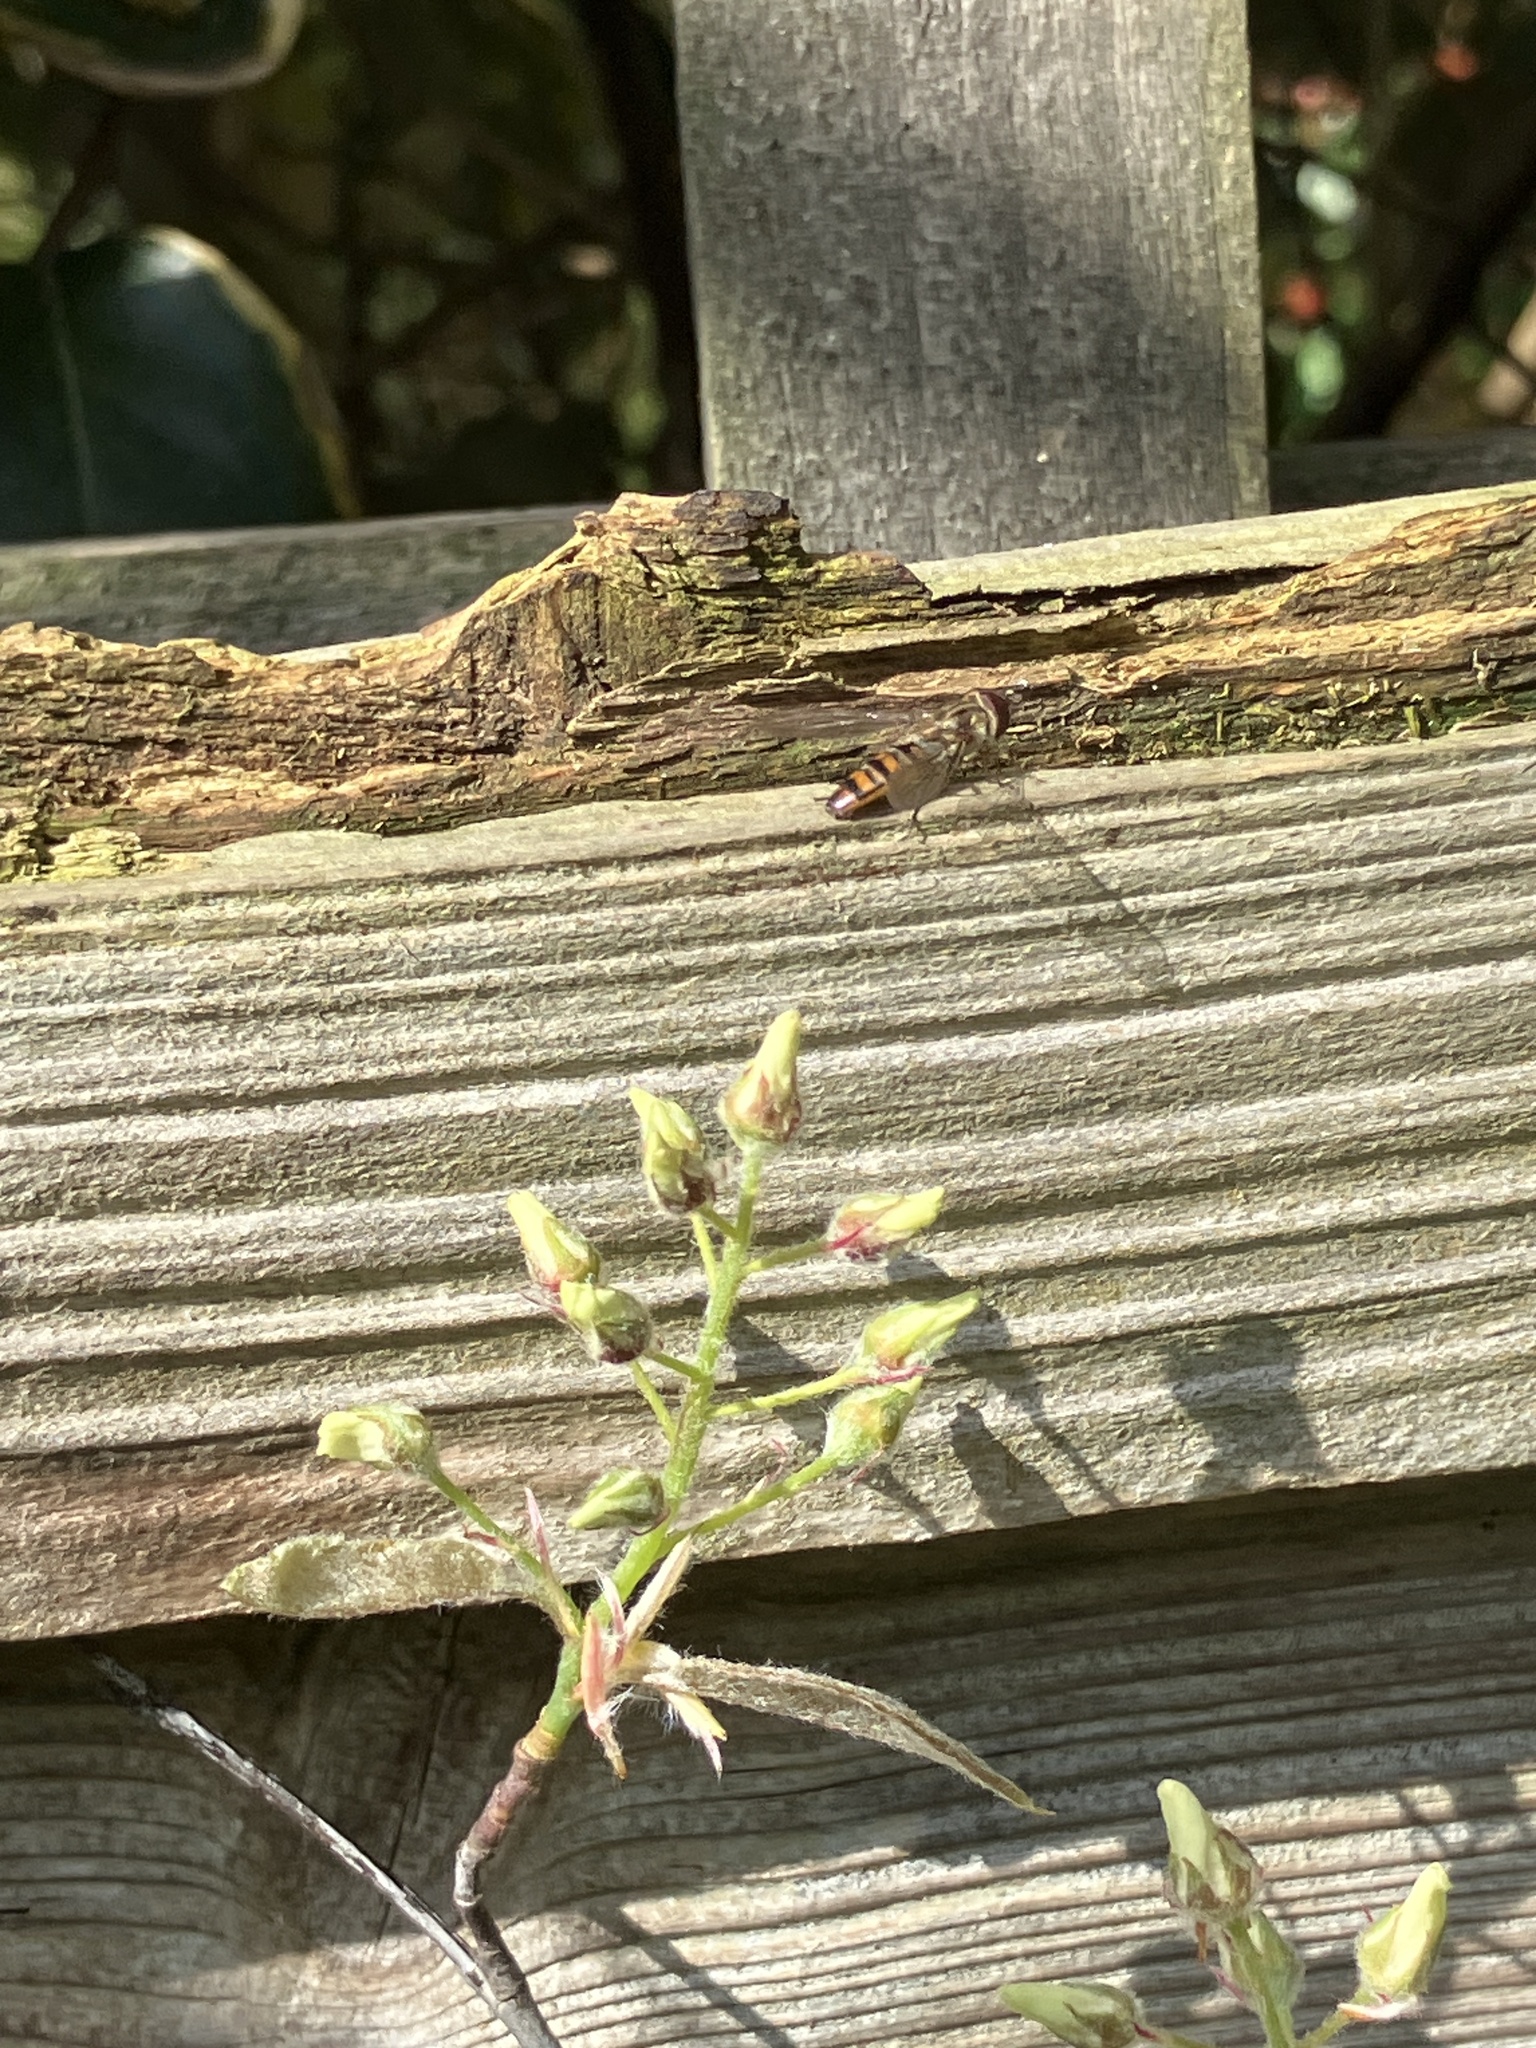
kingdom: Animalia
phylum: Arthropoda
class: Insecta
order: Diptera
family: Syrphidae
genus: Episyrphus
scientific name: Episyrphus balteatus
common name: Marmalade hoverfly
